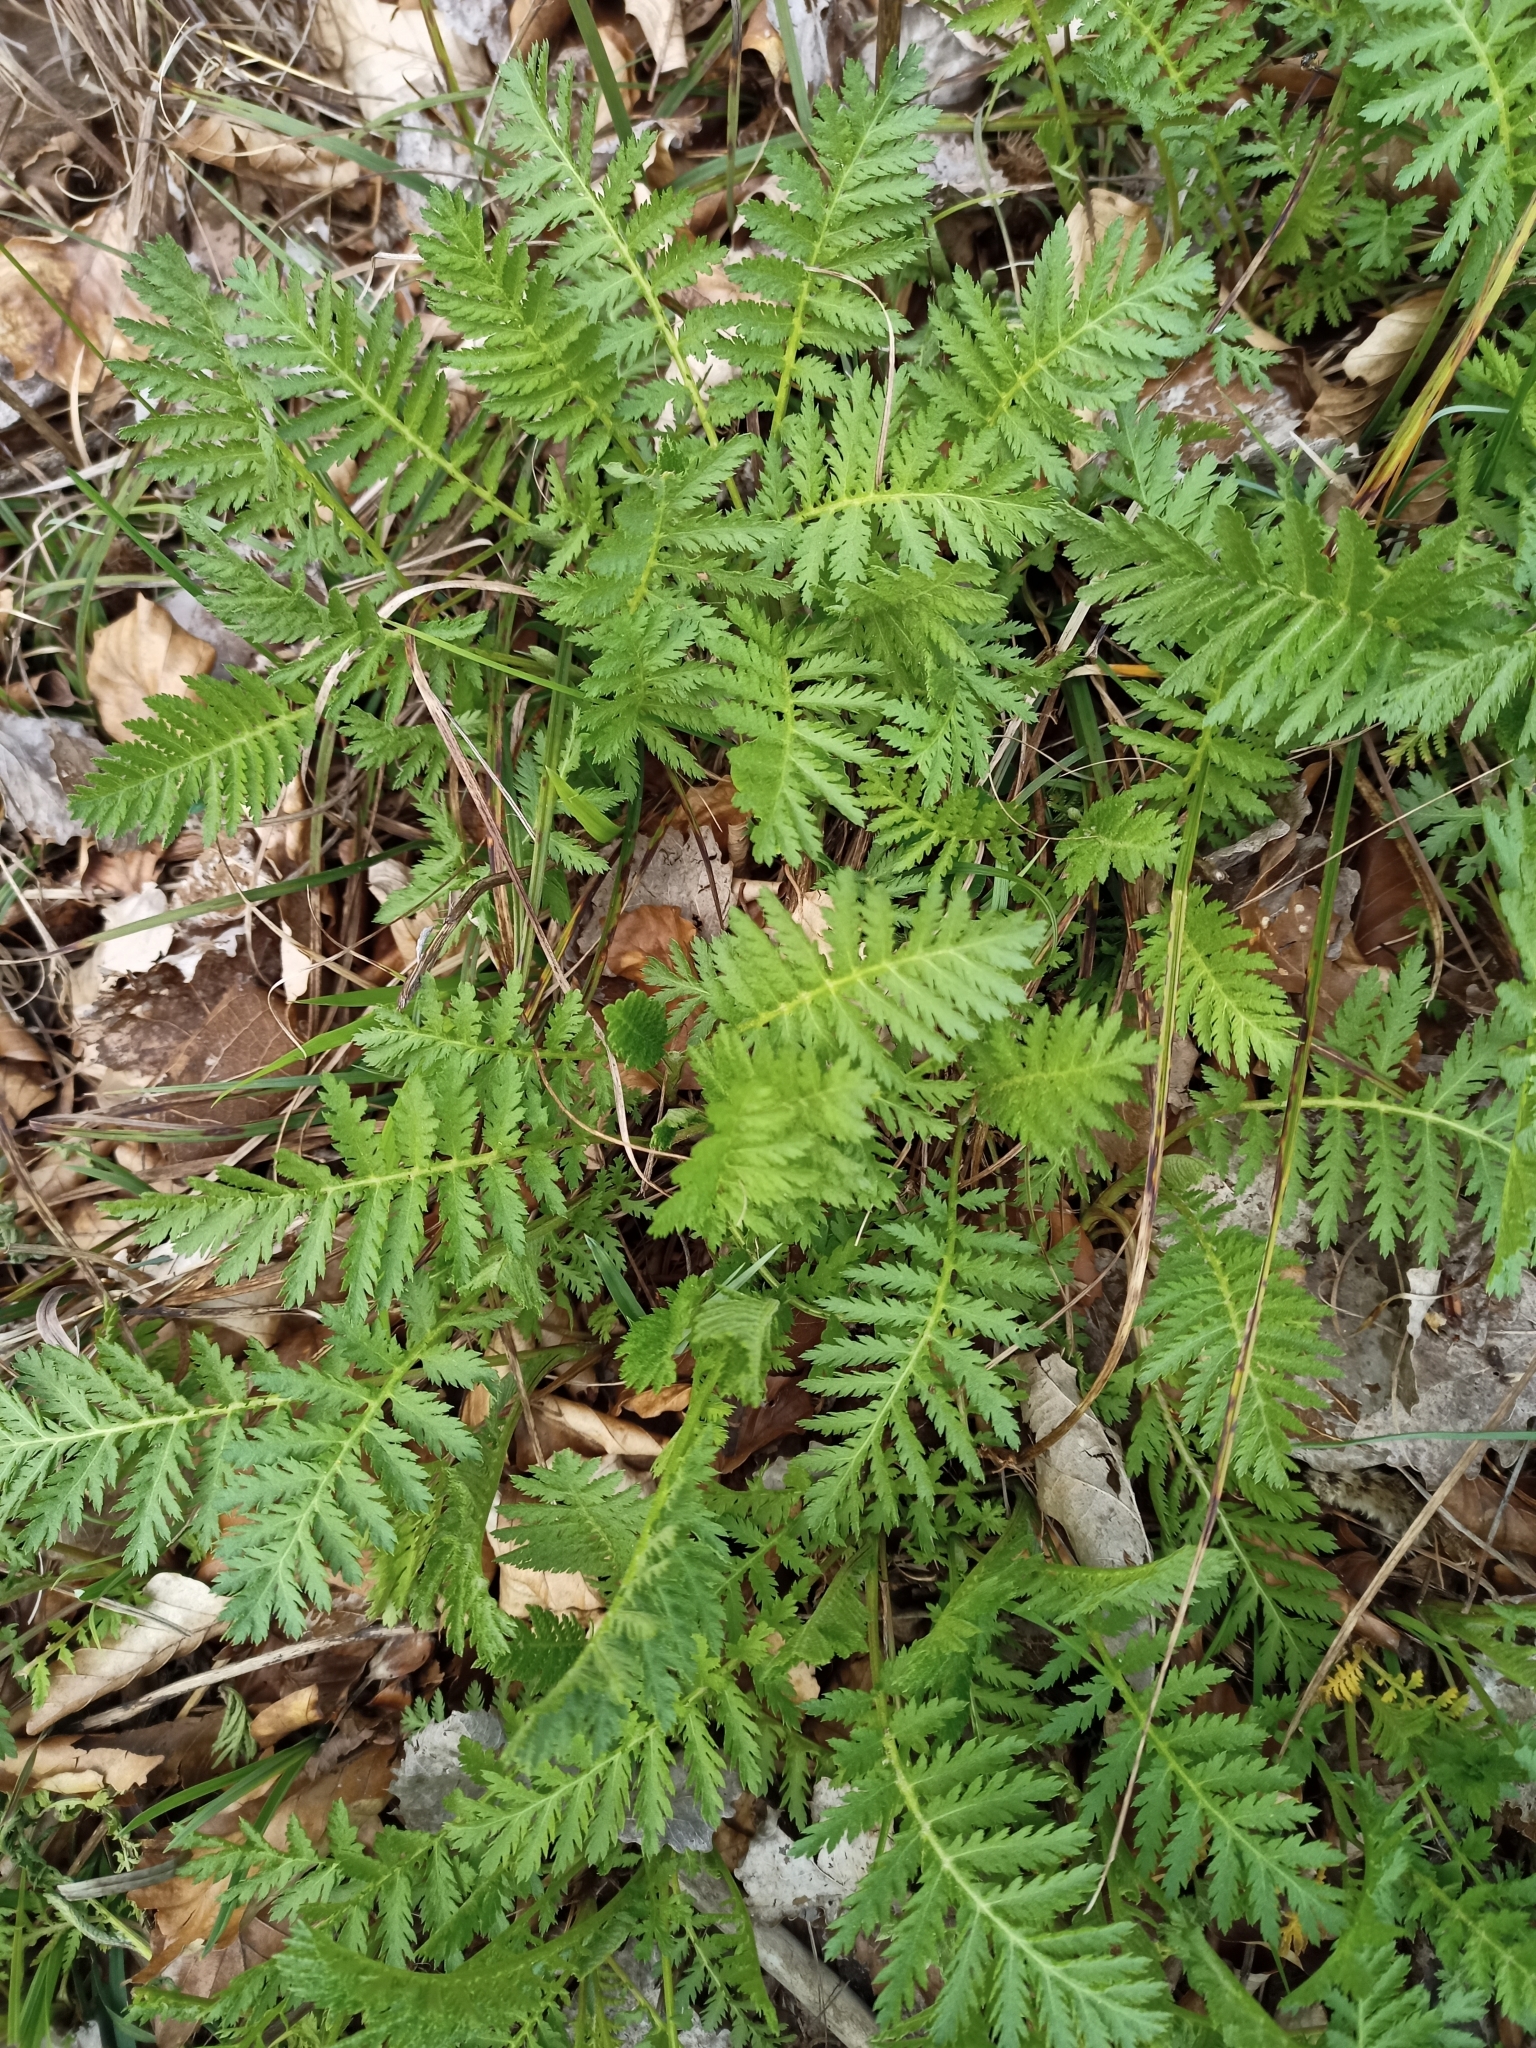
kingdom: Plantae
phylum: Tracheophyta
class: Magnoliopsida
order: Asterales
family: Asteraceae
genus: Tanacetum
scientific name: Tanacetum vulgare
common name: Common tansy
